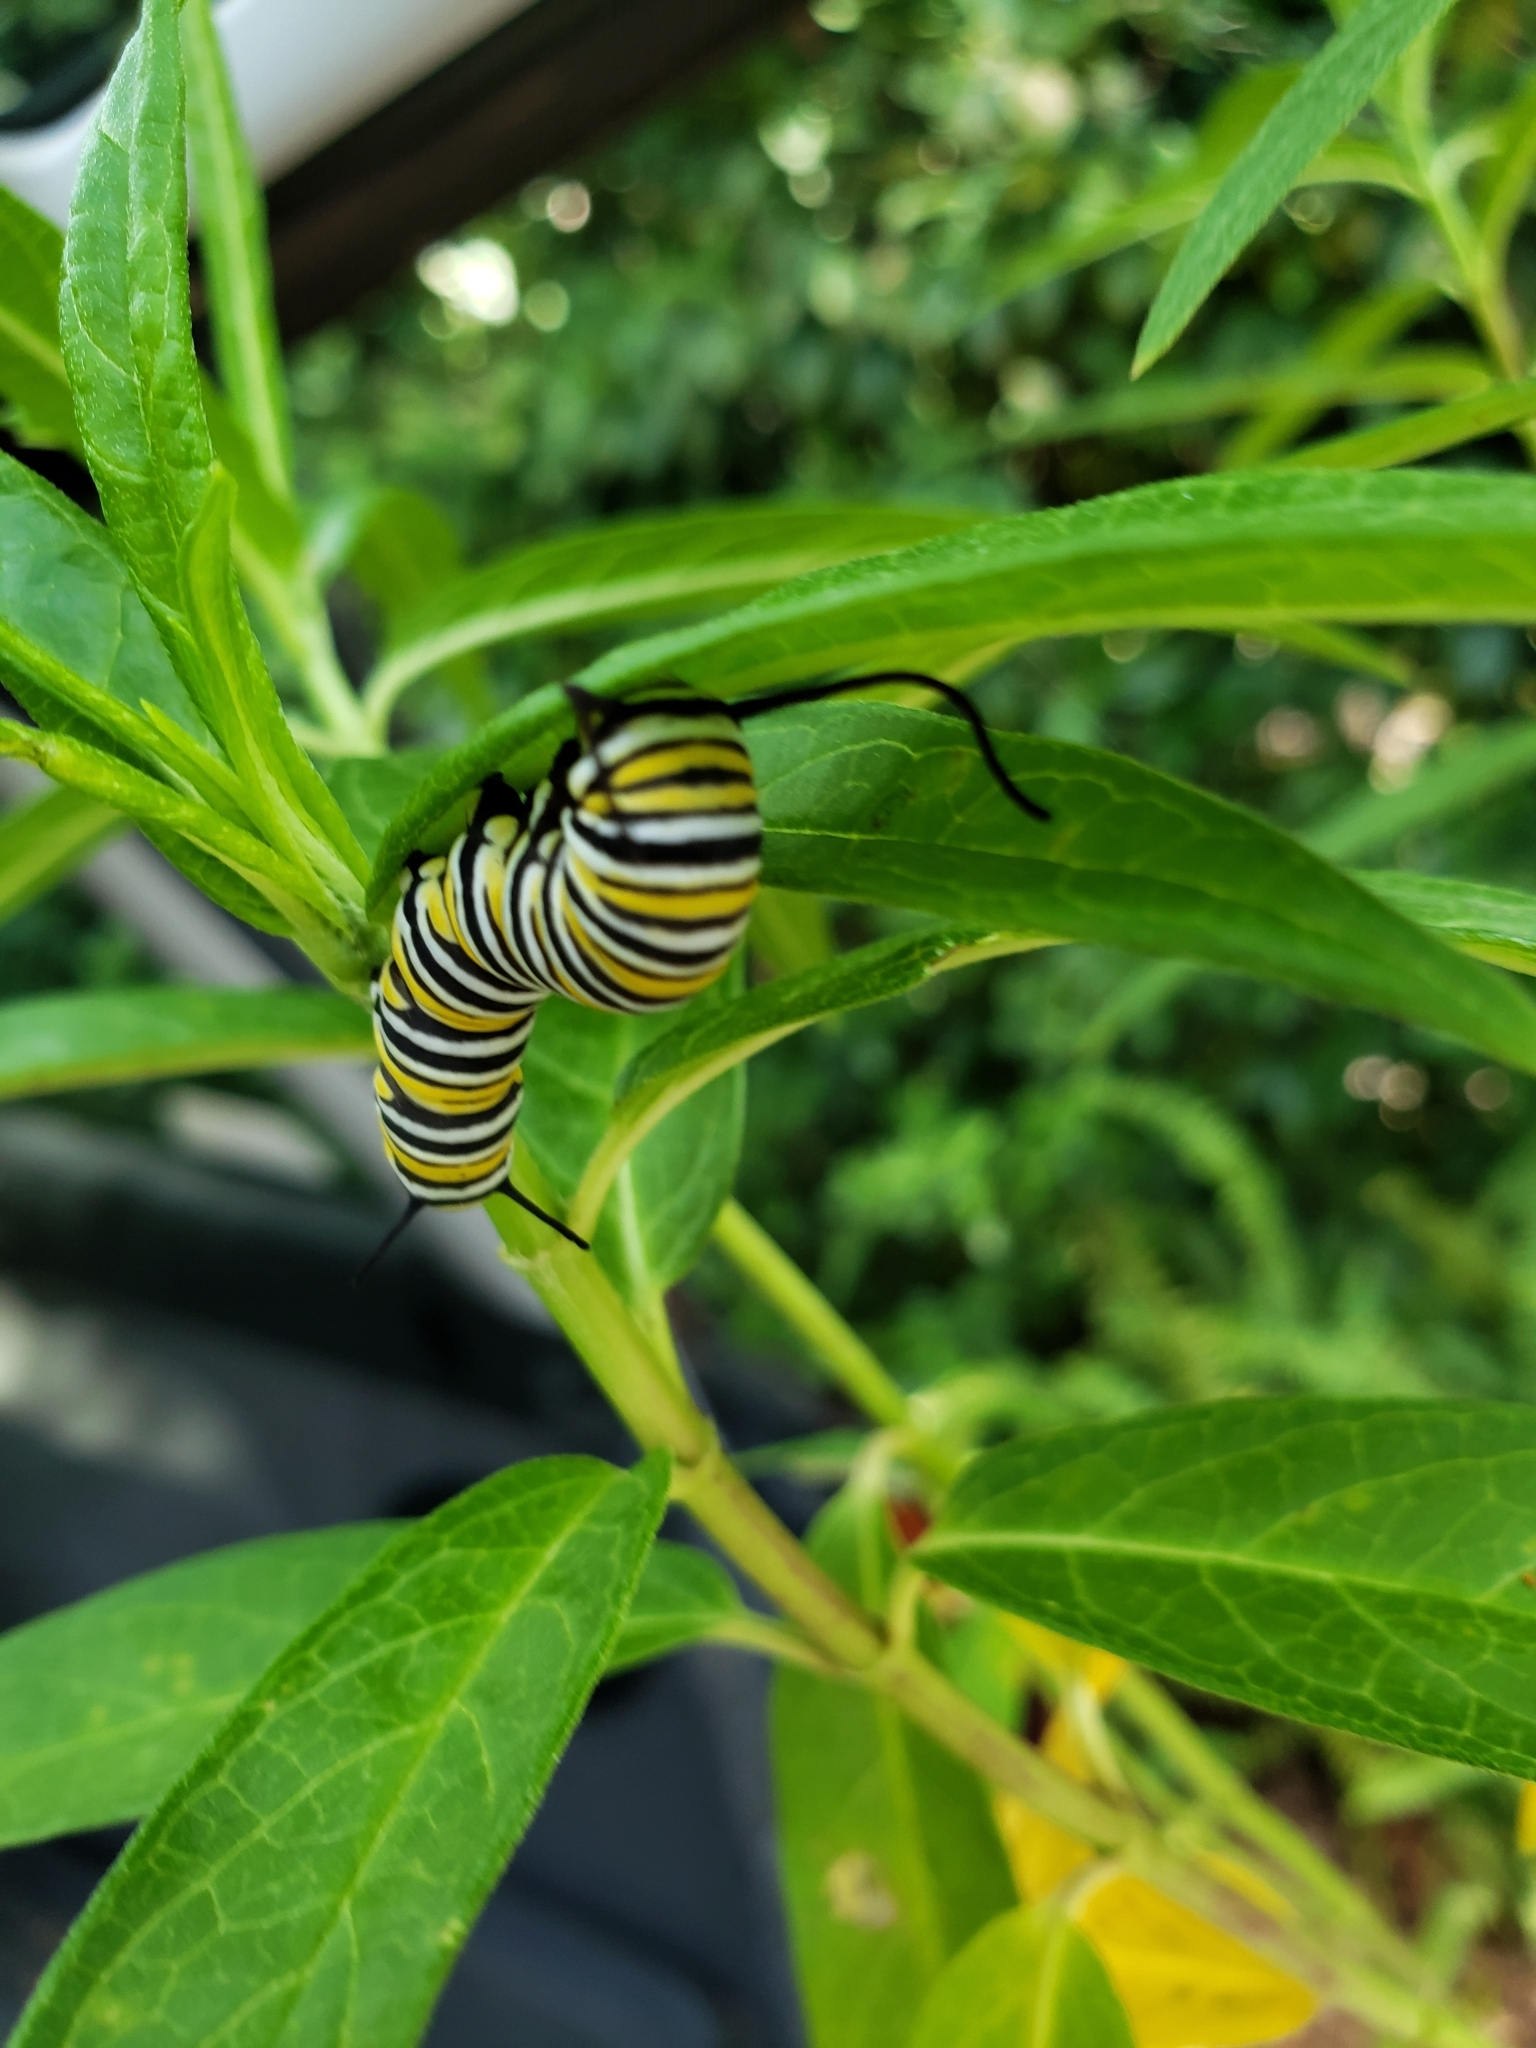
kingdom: Animalia
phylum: Arthropoda
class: Insecta
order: Lepidoptera
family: Nymphalidae
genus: Danaus
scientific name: Danaus plexippus
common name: Monarch
